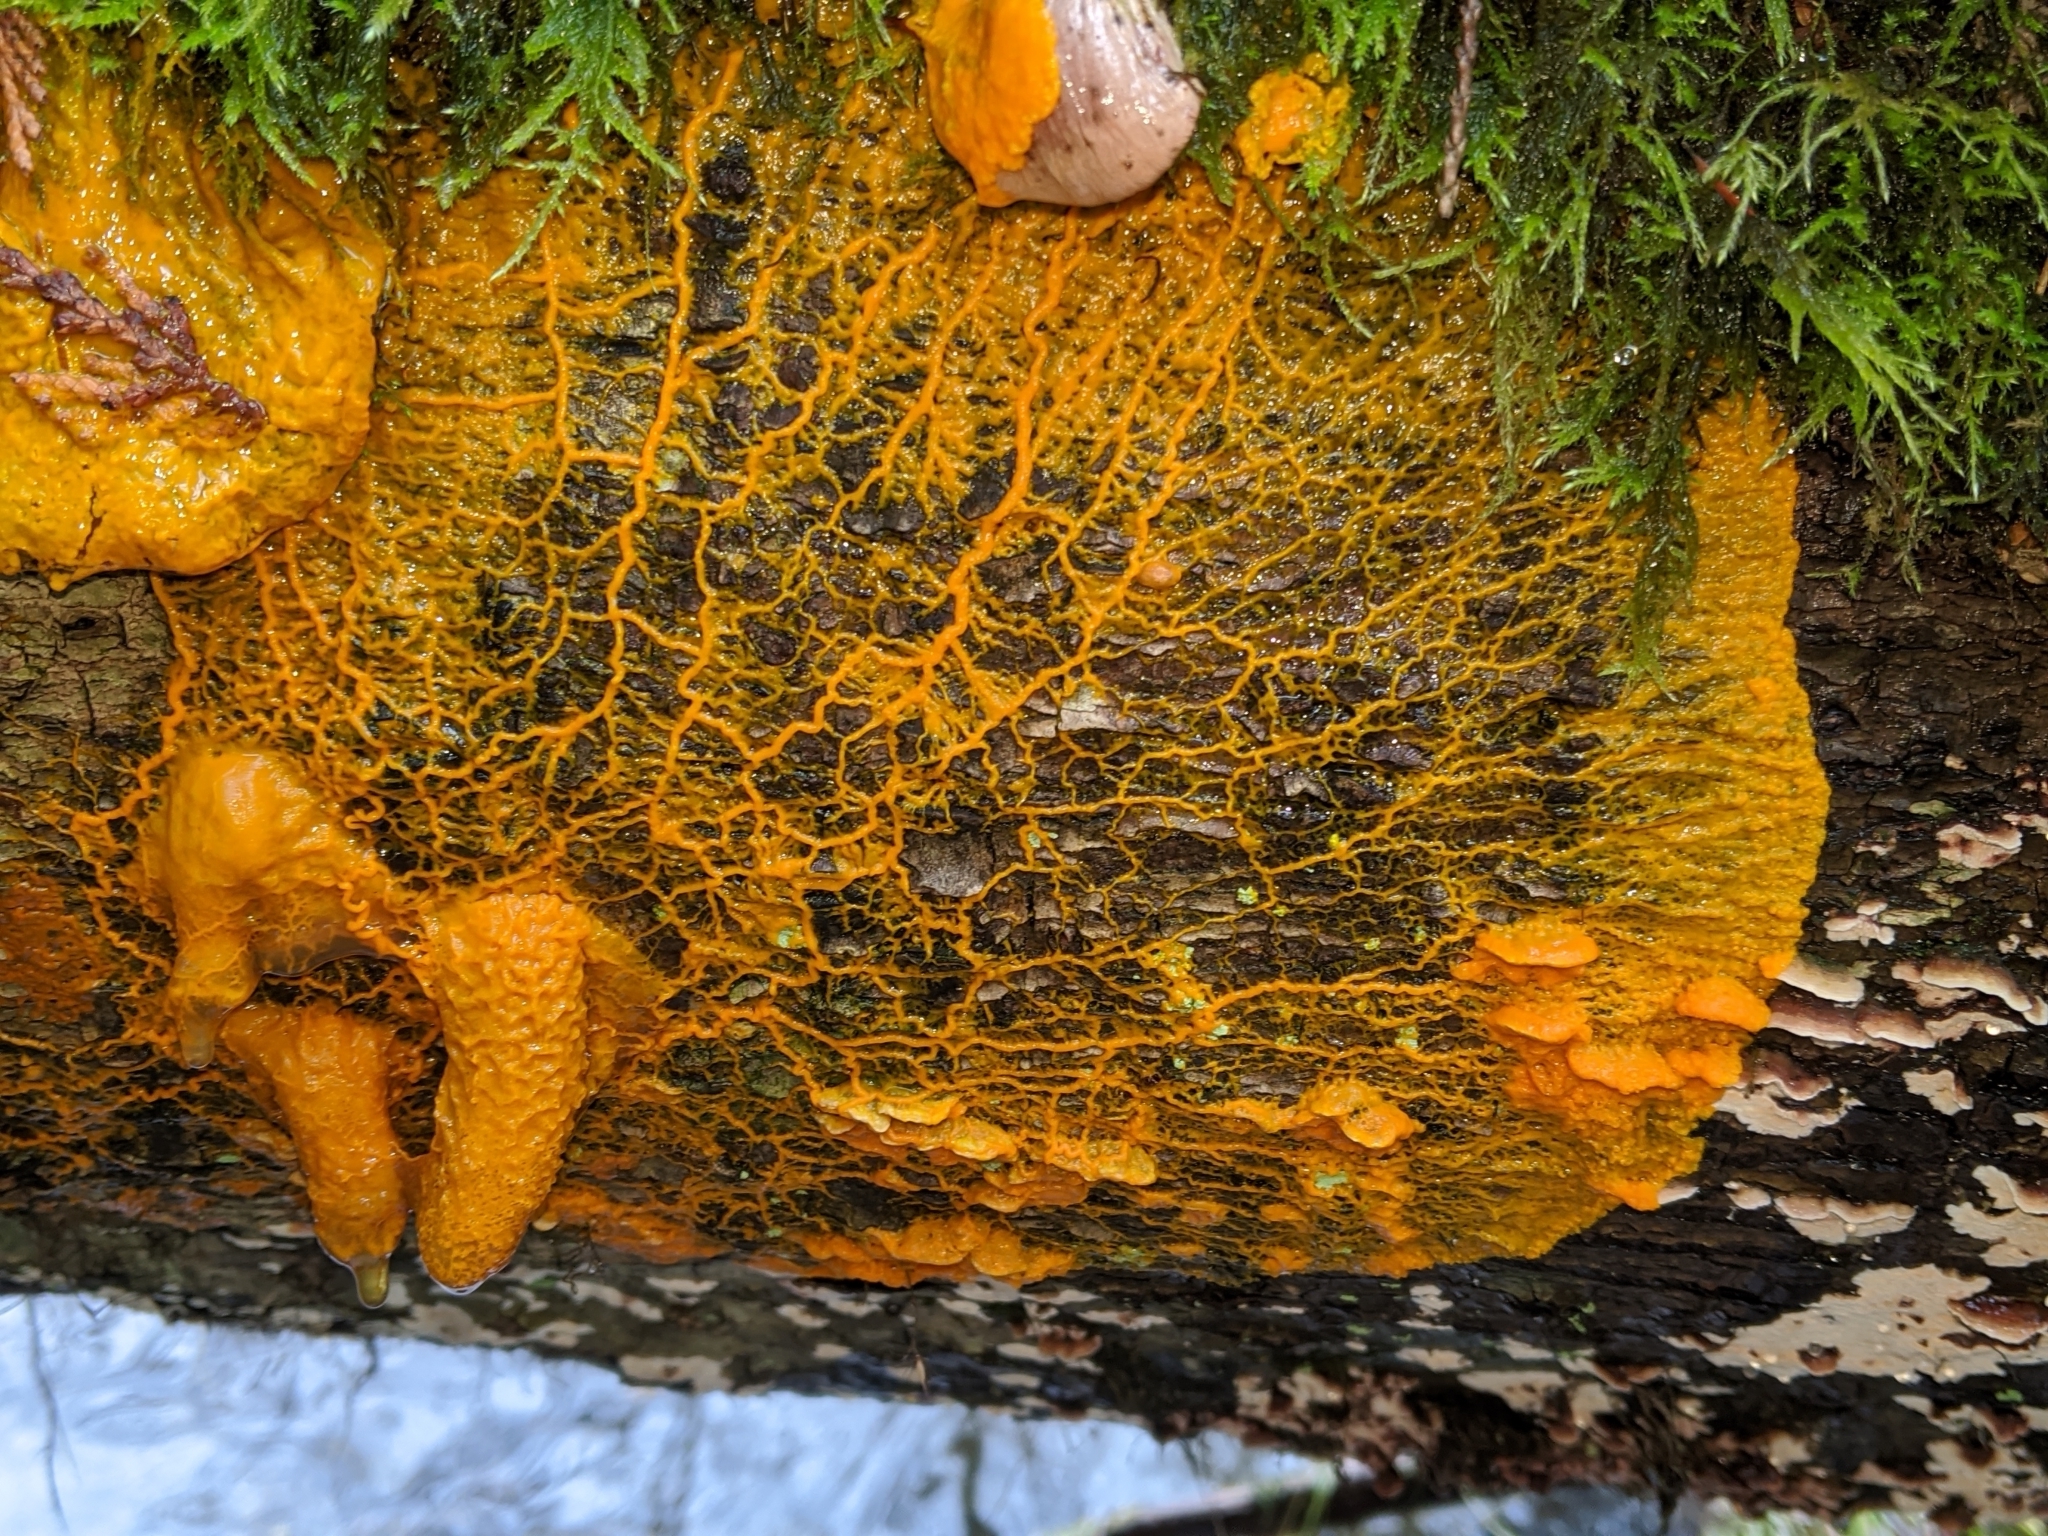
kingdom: Protozoa
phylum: Mycetozoa
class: Myxomycetes
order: Physarales
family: Physaraceae
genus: Badhamia
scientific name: Badhamia utricularis
